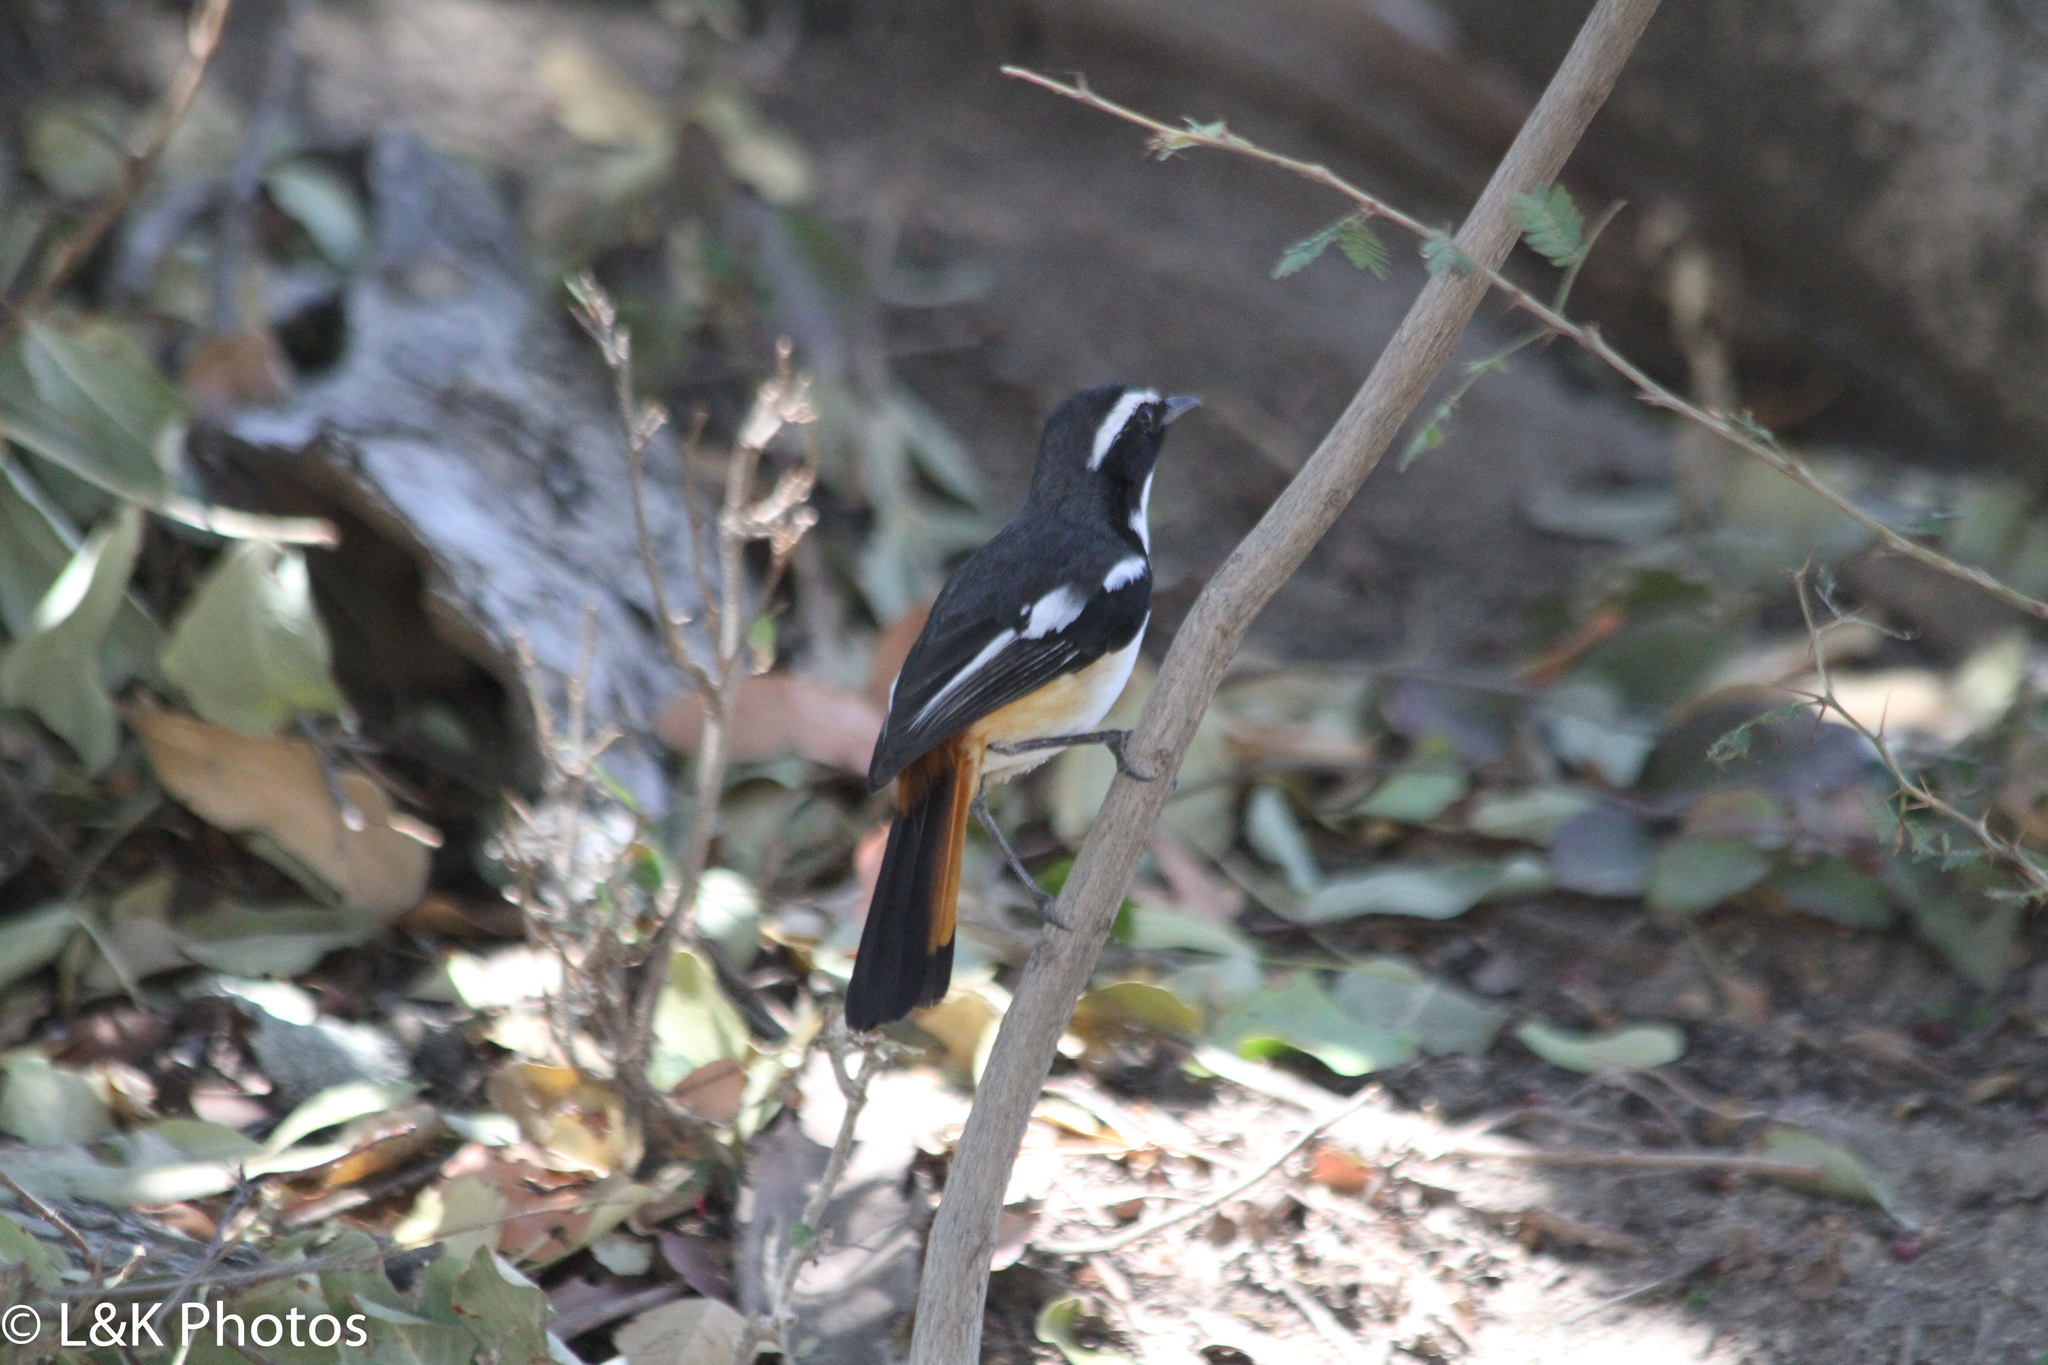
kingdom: Animalia
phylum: Chordata
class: Aves
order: Passeriformes
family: Muscicapidae
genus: Cossypha
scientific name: Cossypha humeralis
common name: White-throated robin-chat
